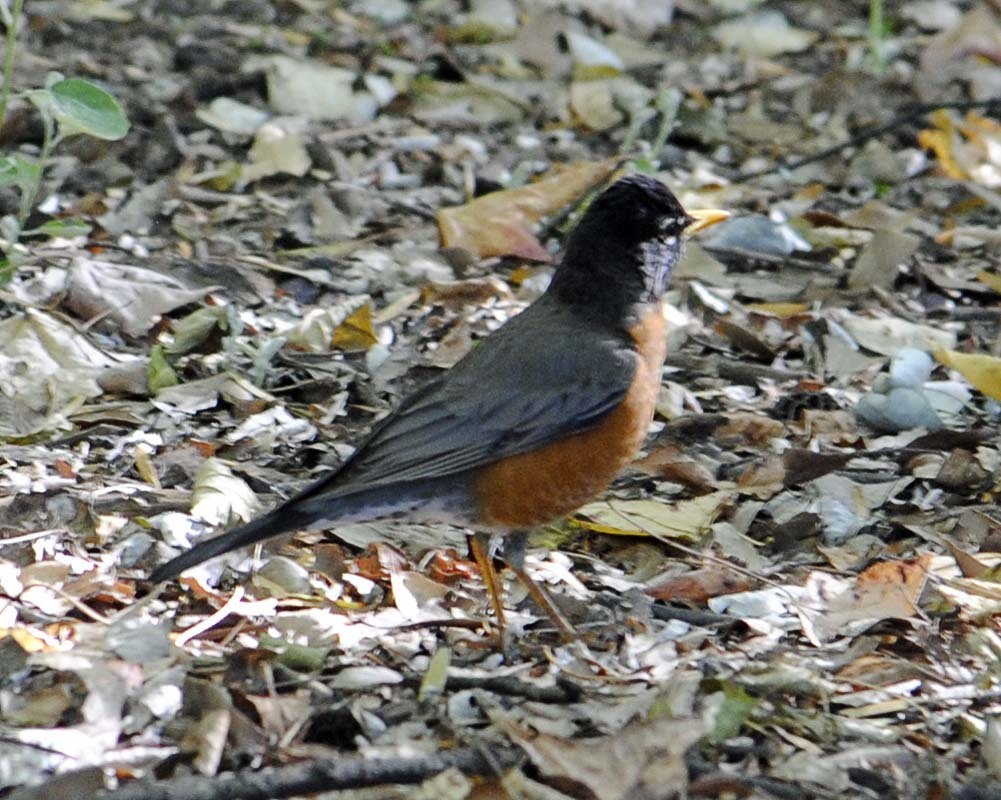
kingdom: Animalia
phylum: Chordata
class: Aves
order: Passeriformes
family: Turdidae
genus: Turdus
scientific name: Turdus migratorius
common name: American robin
